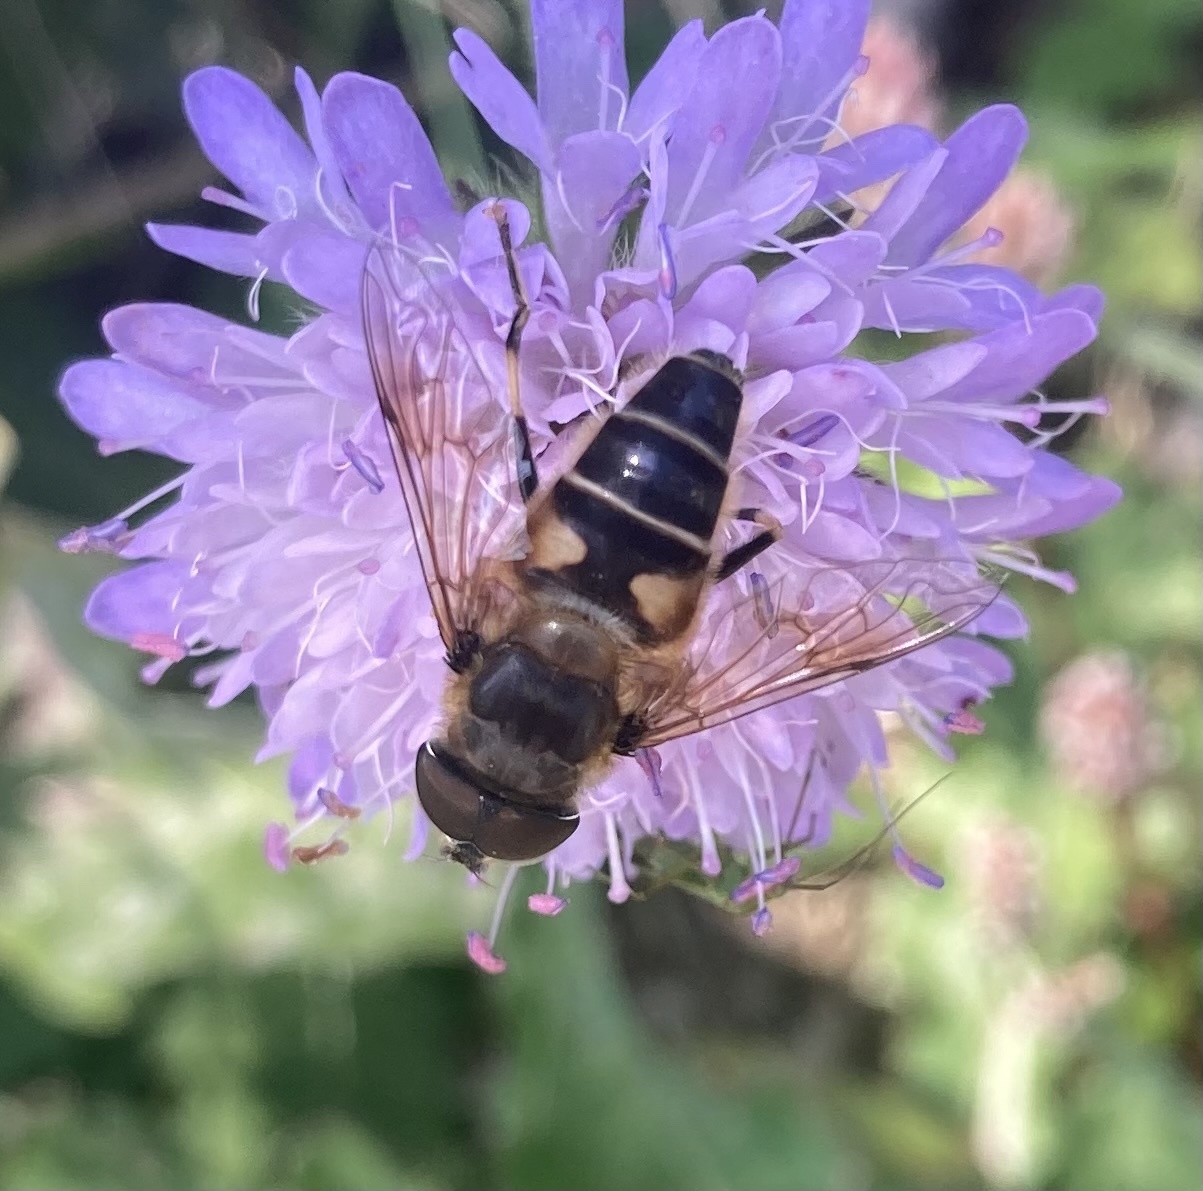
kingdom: Animalia
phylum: Arthropoda
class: Insecta
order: Diptera
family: Syrphidae
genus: Eristalis
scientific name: Eristalis pertinax
